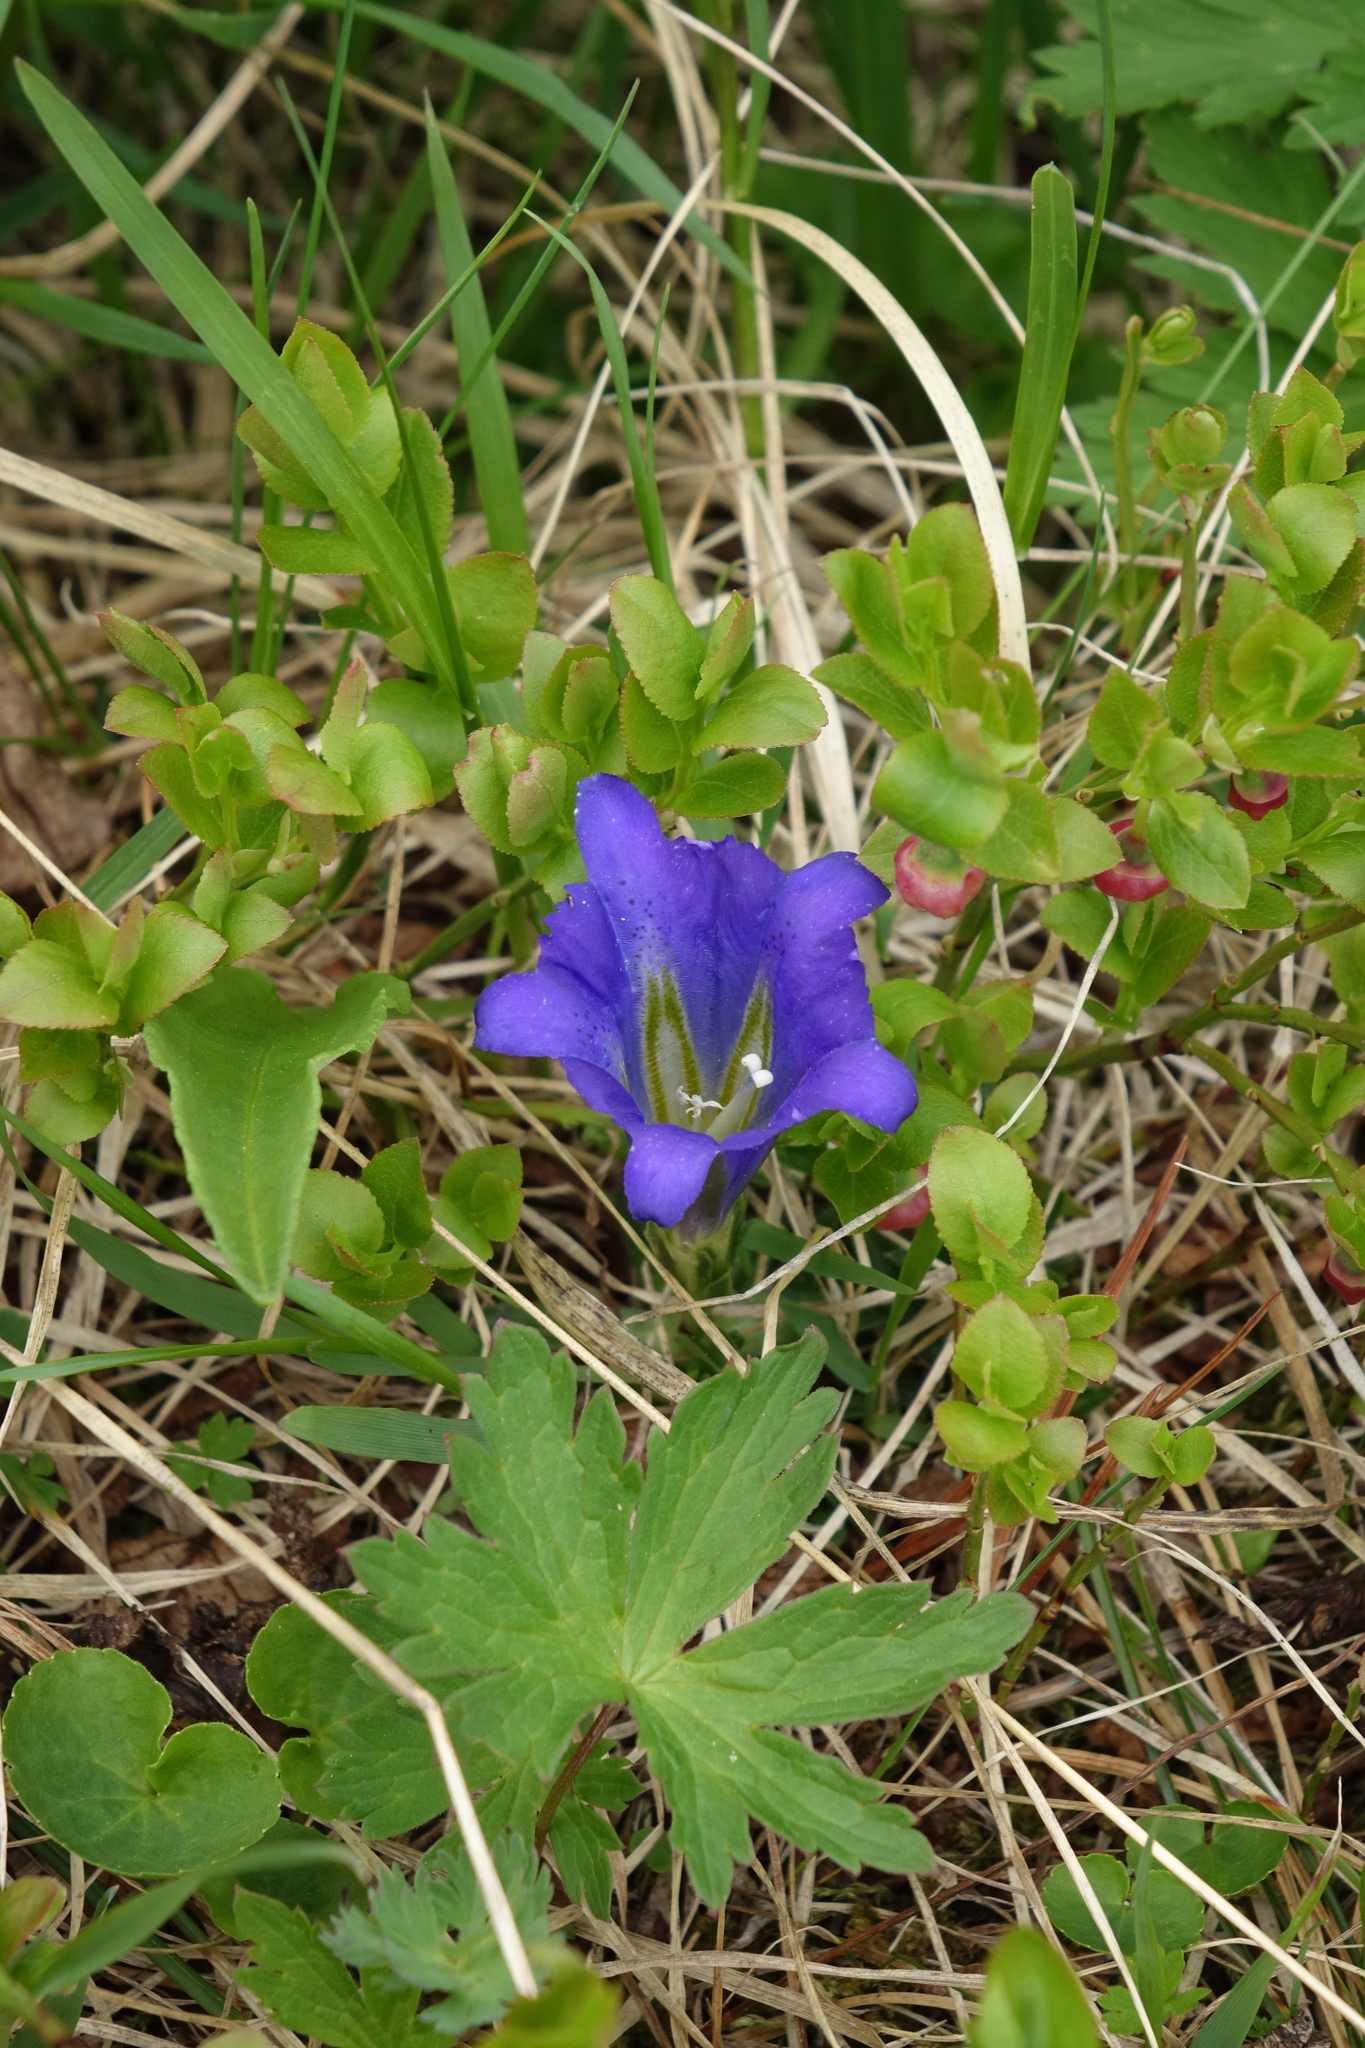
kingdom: Plantae
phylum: Tracheophyta
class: Magnoliopsida
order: Gentianales
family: Gentianaceae
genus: Gentiana
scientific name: Gentiana grandiflora
